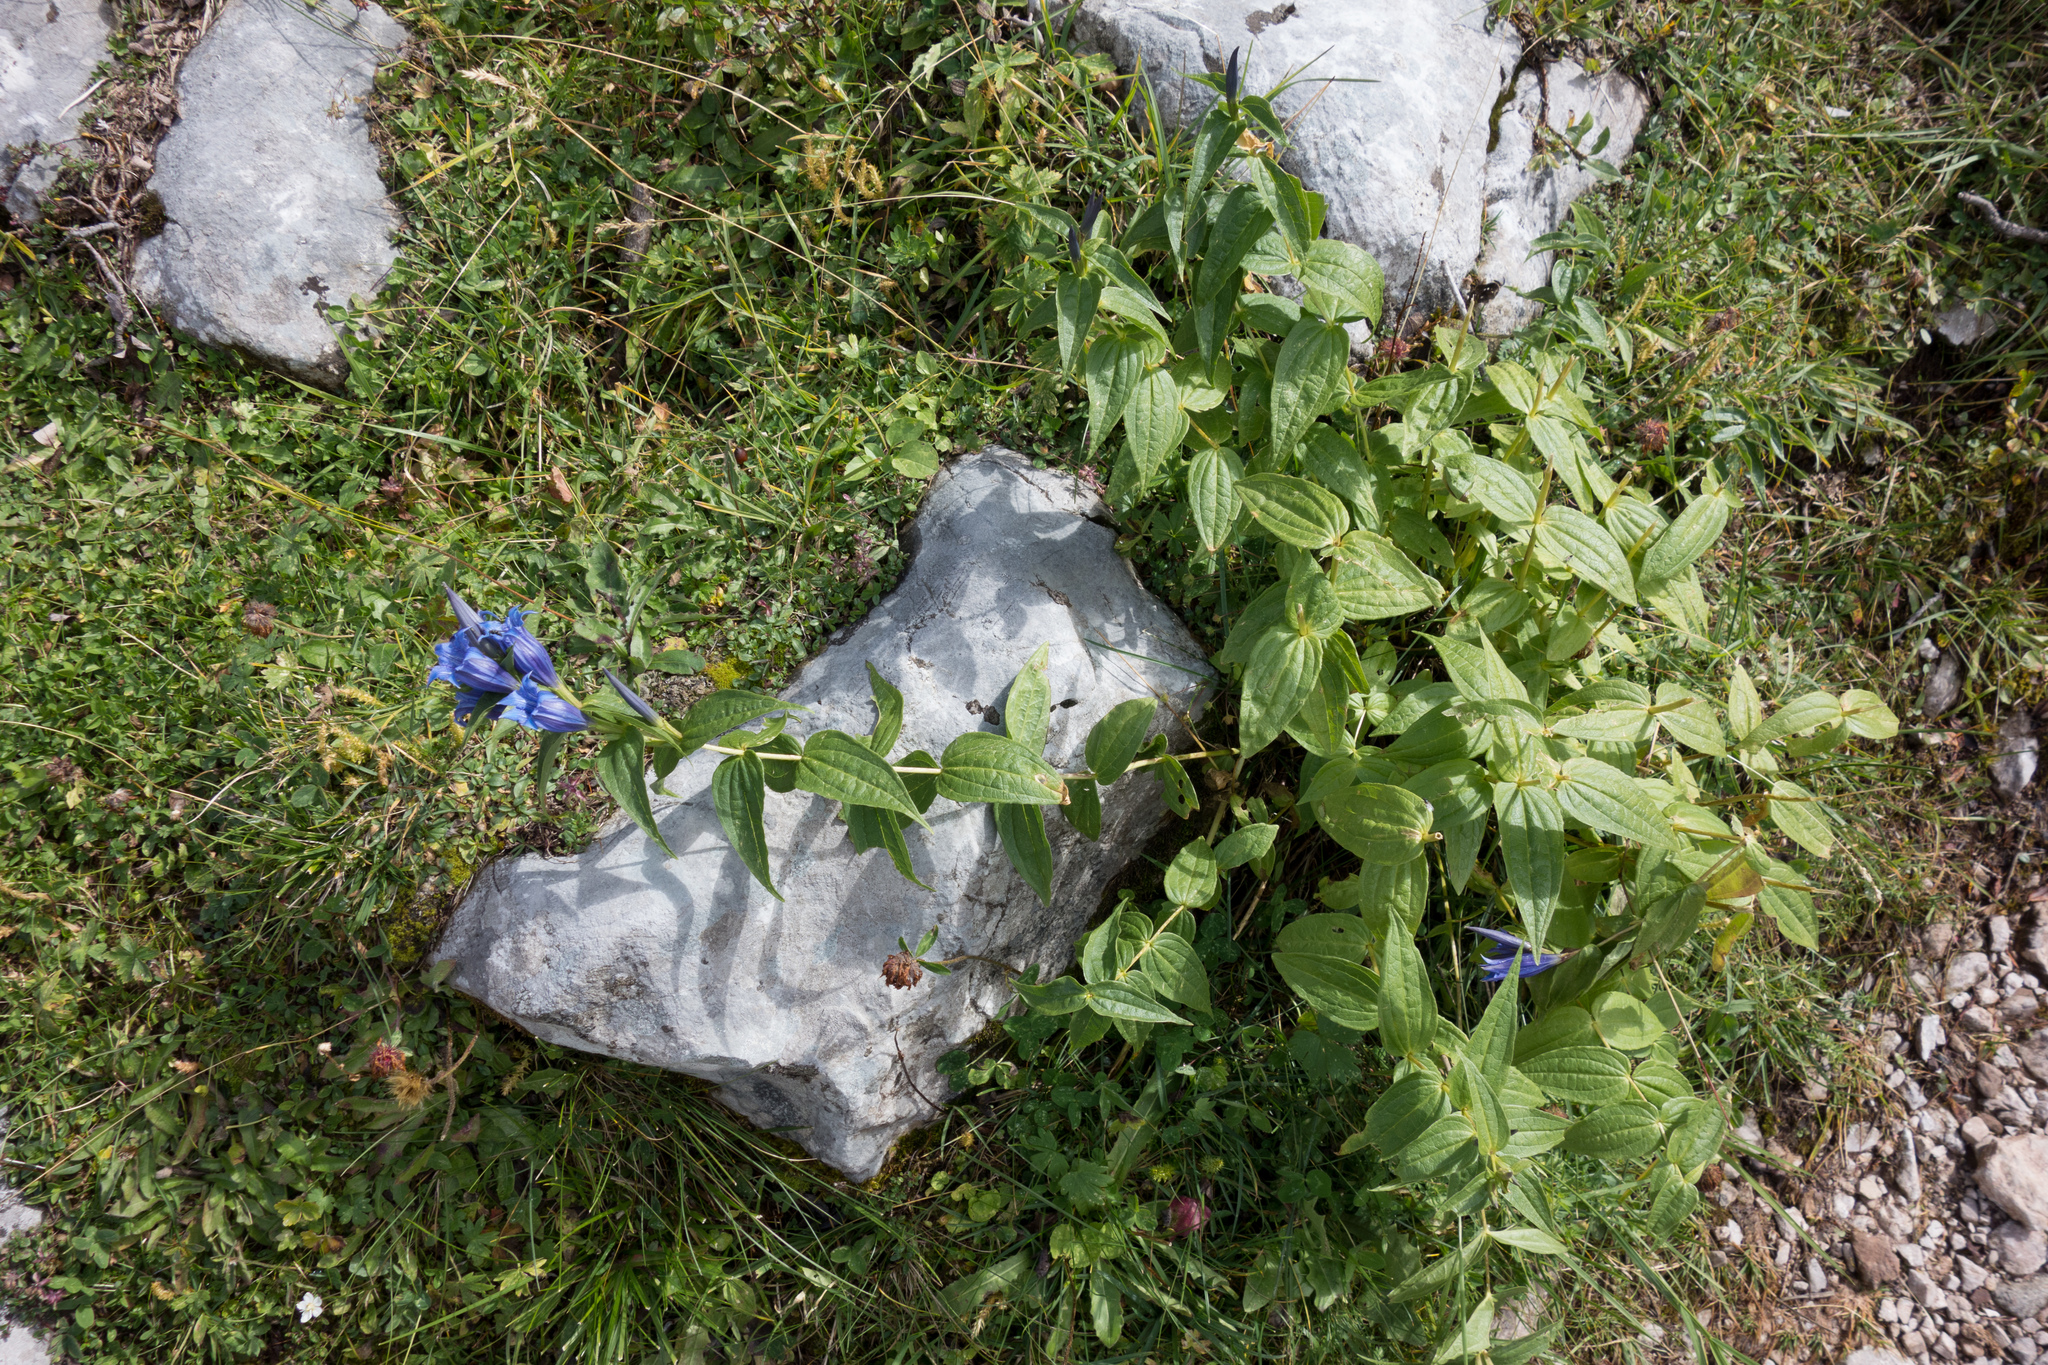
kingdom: Plantae
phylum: Tracheophyta
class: Magnoliopsida
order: Gentianales
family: Gentianaceae
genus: Gentiana
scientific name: Gentiana asclepiadea
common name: Willow gentian
